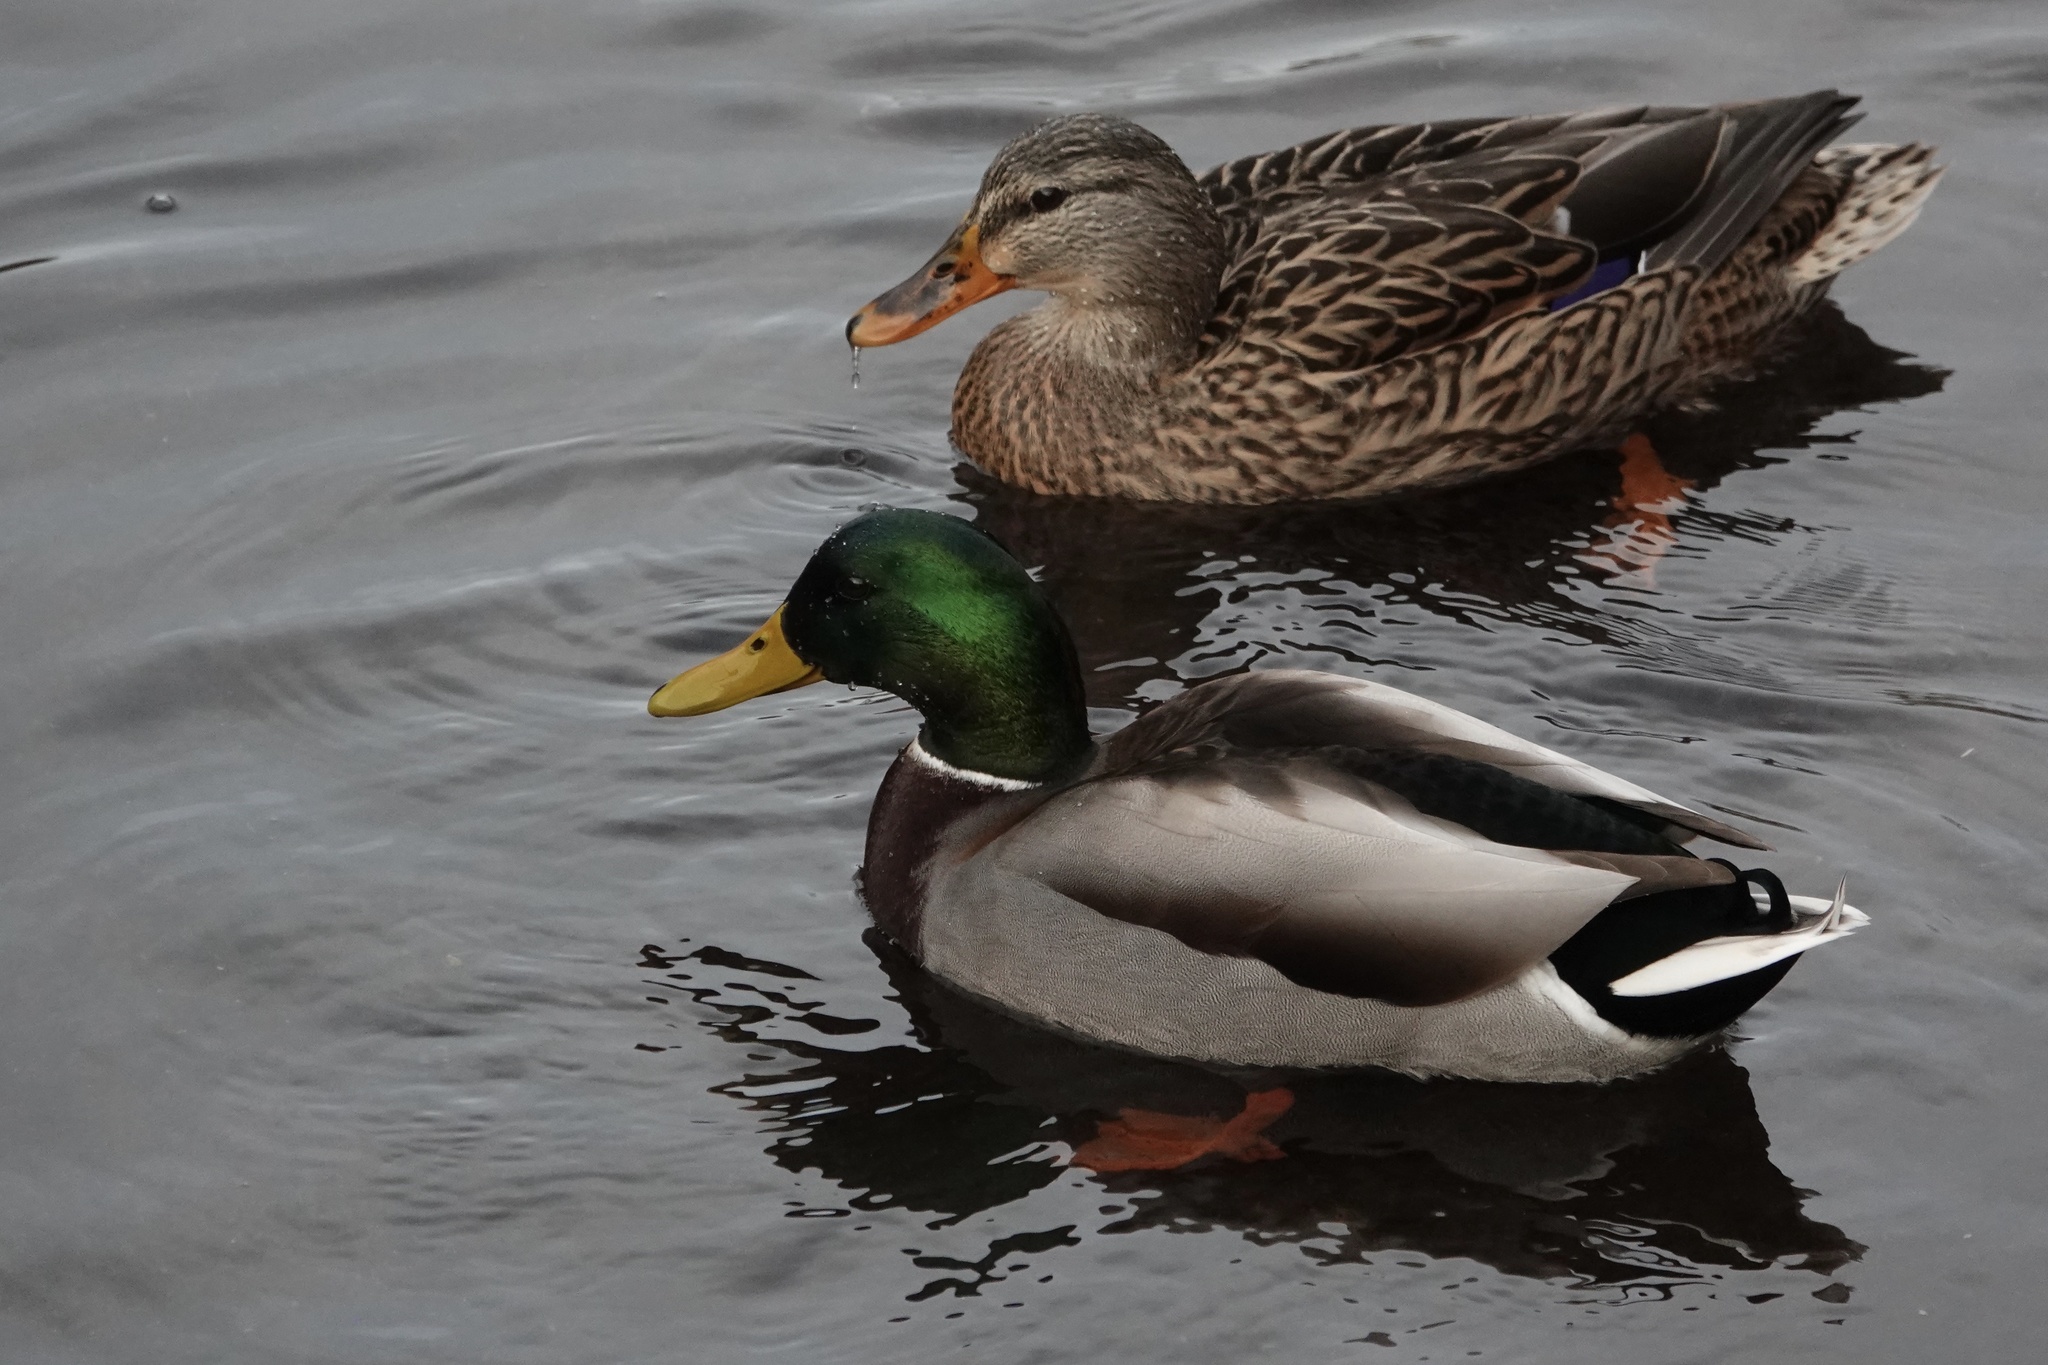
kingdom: Animalia
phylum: Chordata
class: Aves
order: Anseriformes
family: Anatidae
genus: Anas
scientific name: Anas platyrhynchos
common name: Mallard
